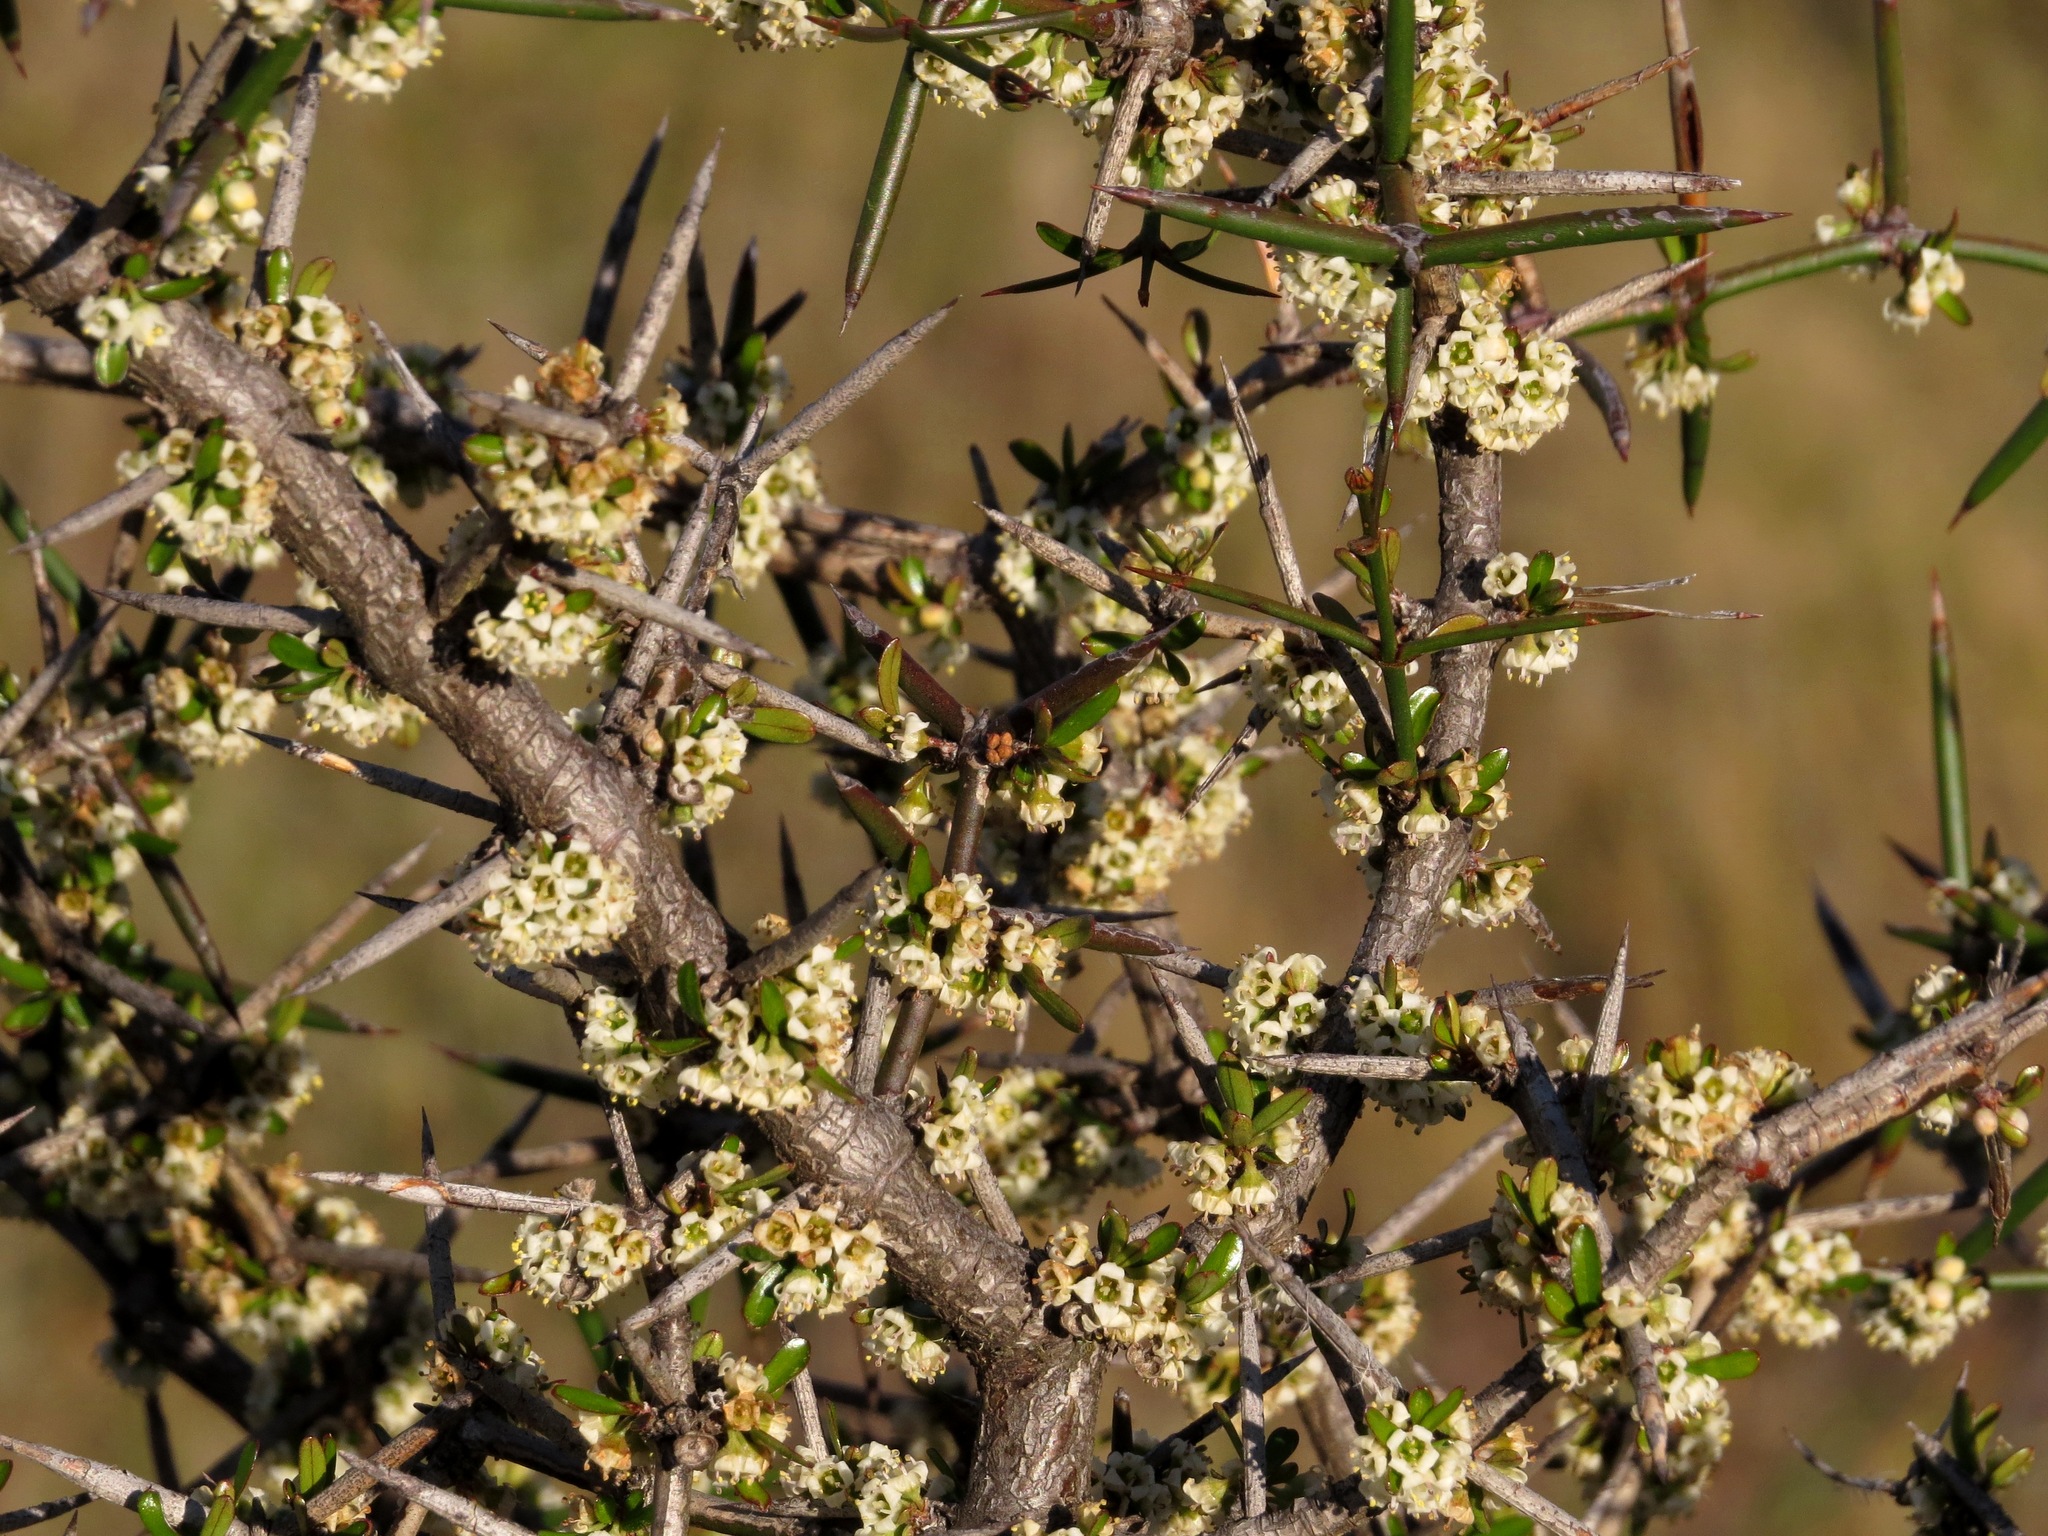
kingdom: Plantae
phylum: Tracheophyta
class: Magnoliopsida
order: Rosales
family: Rhamnaceae
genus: Discaria
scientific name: Discaria toumatou
